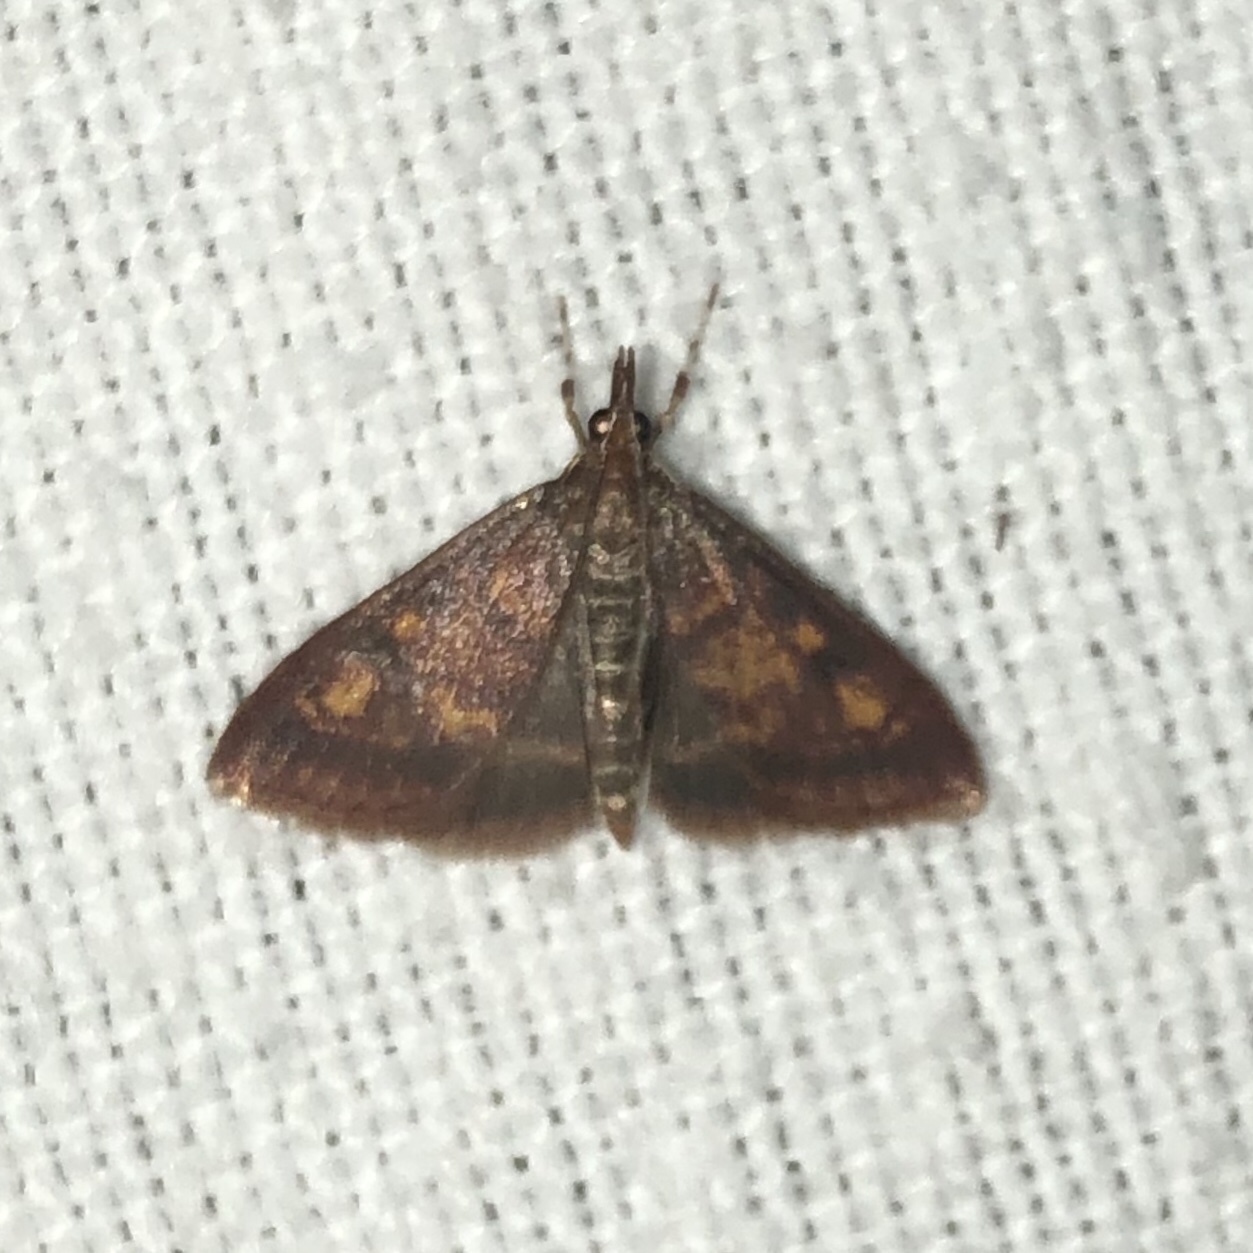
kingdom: Animalia
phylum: Arthropoda
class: Insecta
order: Lepidoptera
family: Crambidae
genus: Pyrausta
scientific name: Pyrausta acrionalis
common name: Mint-loving pyrausta moth
